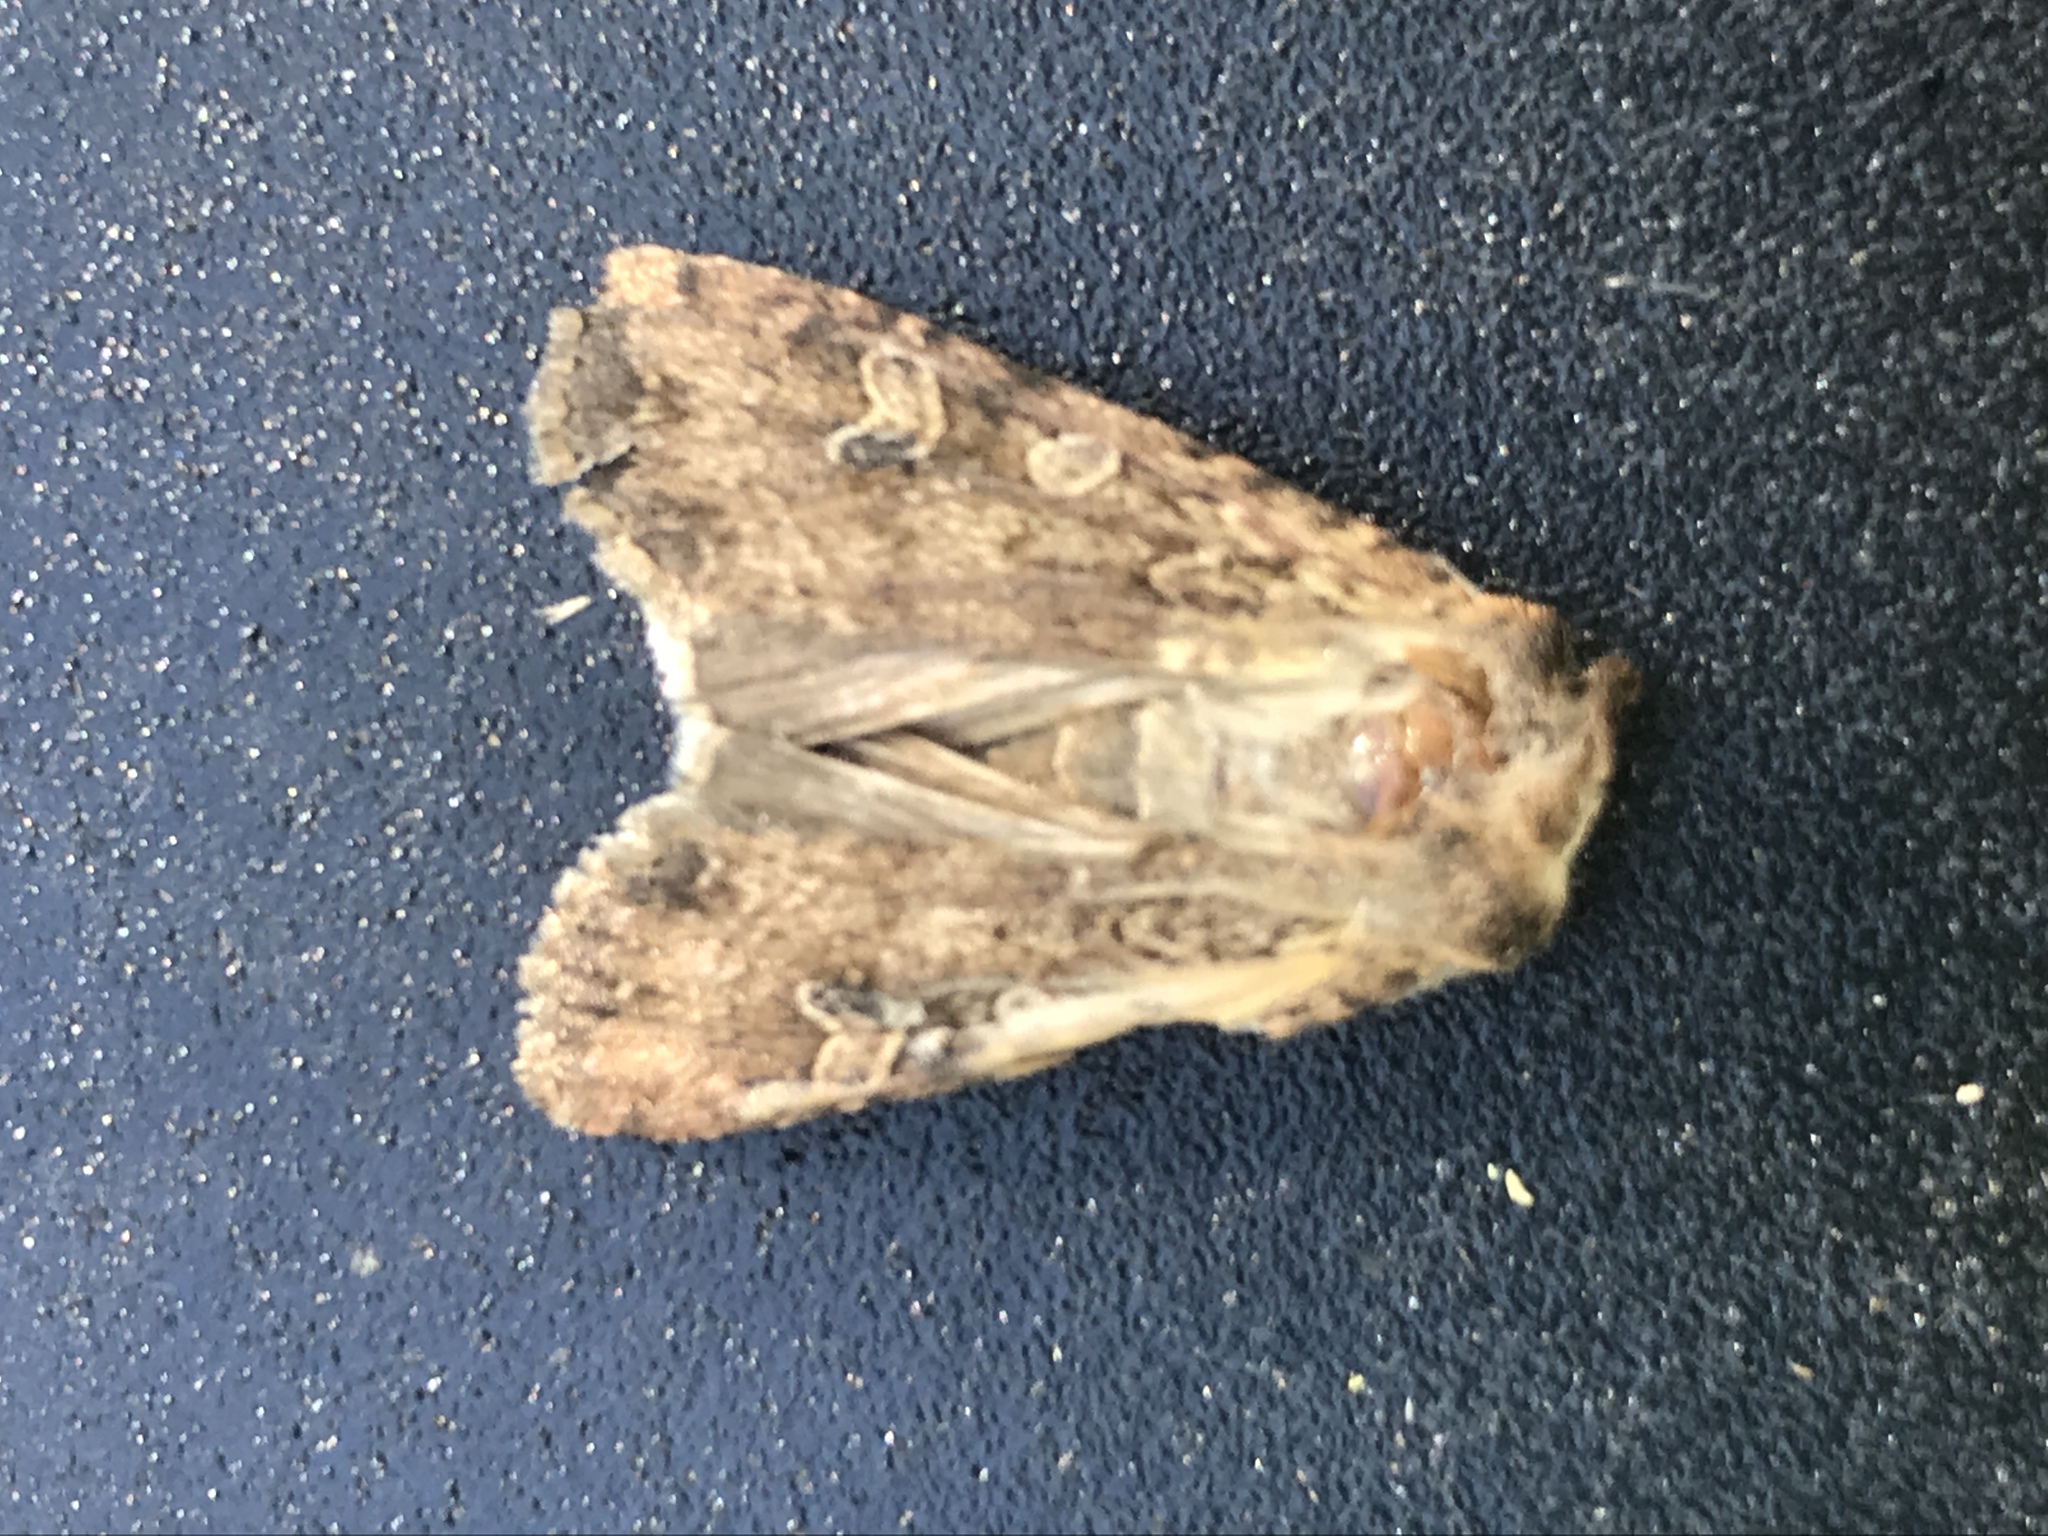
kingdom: Animalia
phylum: Arthropoda
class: Insecta
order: Lepidoptera
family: Noctuidae
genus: Euxoa
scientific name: Euxoa auxiliaris
